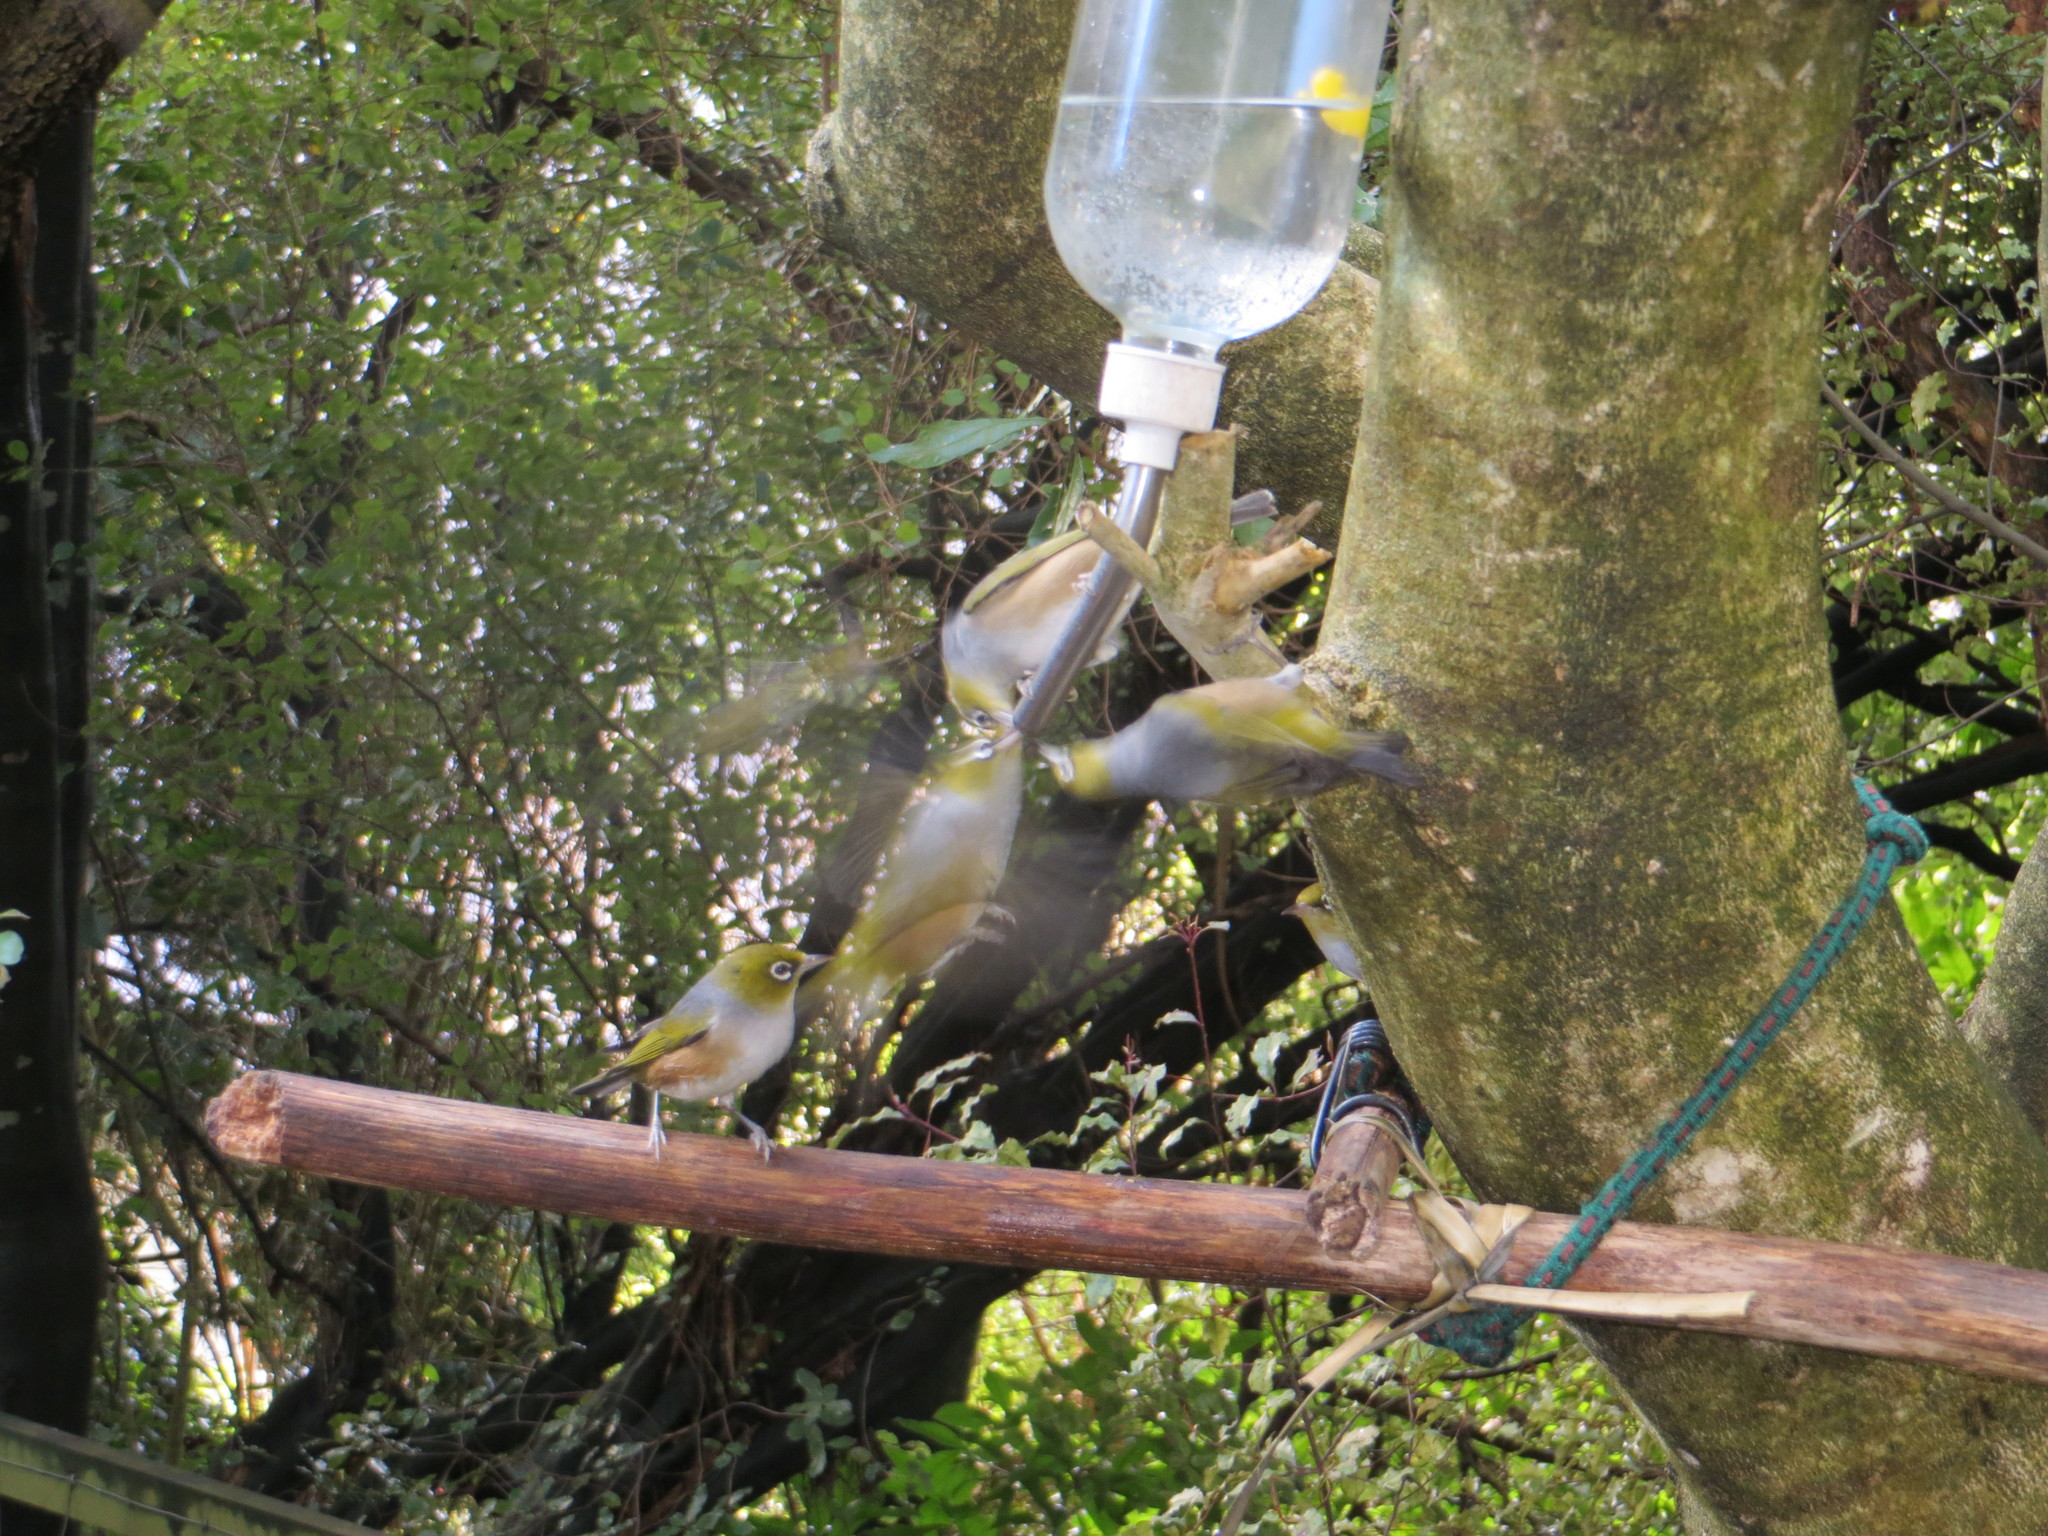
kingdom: Animalia
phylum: Chordata
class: Aves
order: Passeriformes
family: Zosteropidae
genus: Zosterops
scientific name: Zosterops lateralis
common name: Silvereye
